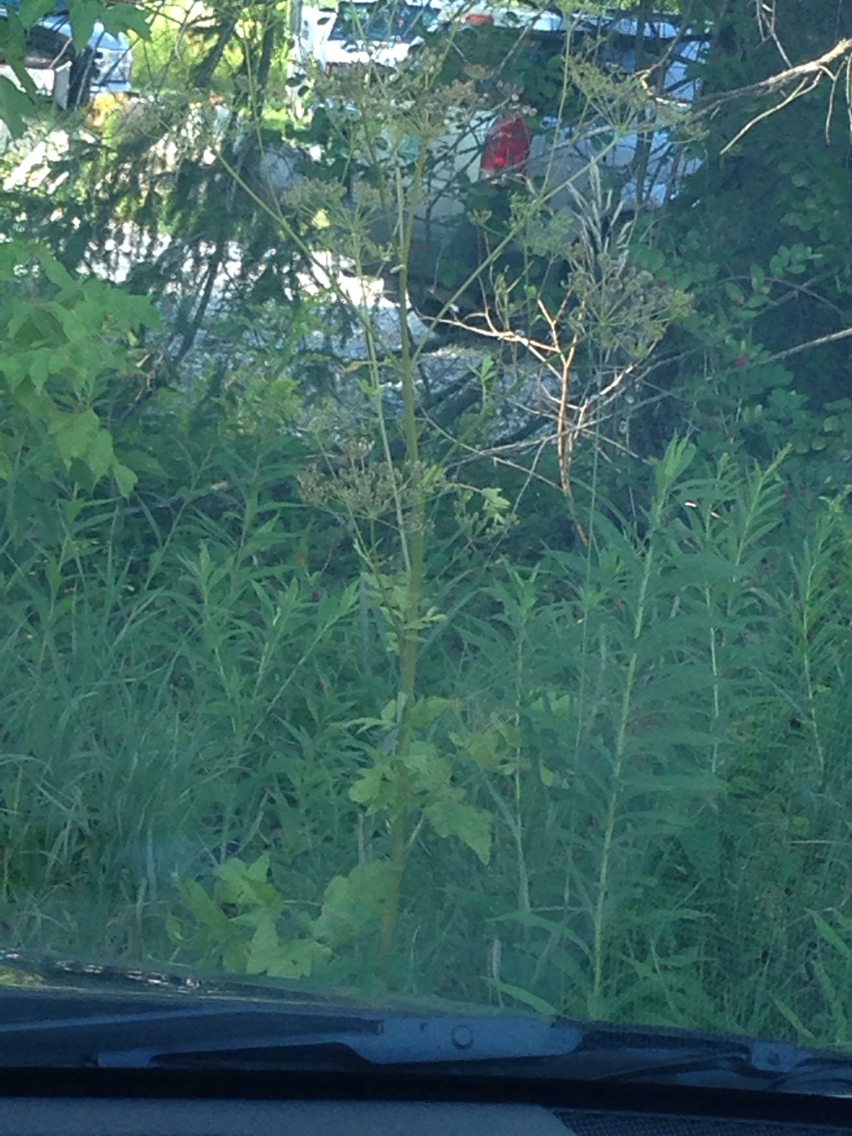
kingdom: Plantae
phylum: Tracheophyta
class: Magnoliopsida
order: Apiales
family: Apiaceae
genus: Pastinaca
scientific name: Pastinaca sativa
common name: Wild parsnip
